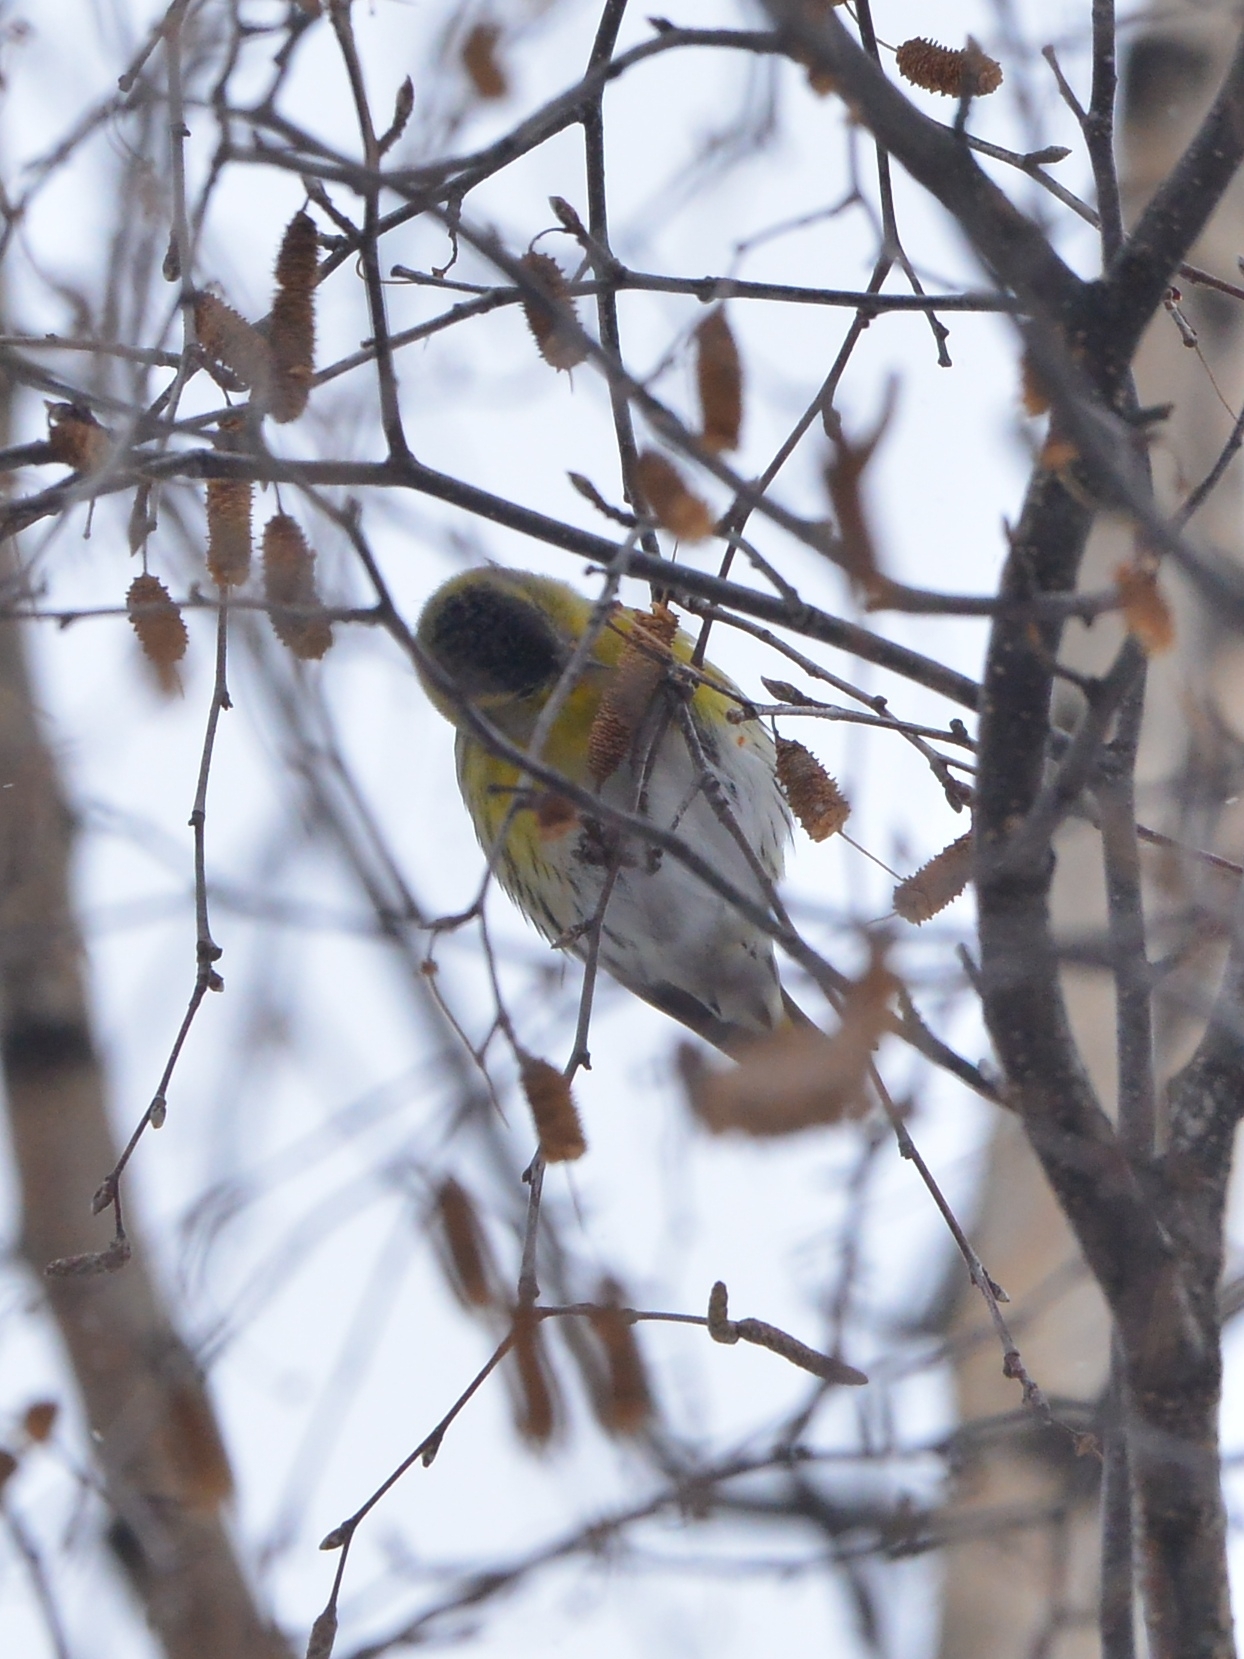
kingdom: Animalia
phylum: Chordata
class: Aves
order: Passeriformes
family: Fringillidae
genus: Spinus
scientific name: Spinus spinus
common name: Eurasian siskin
